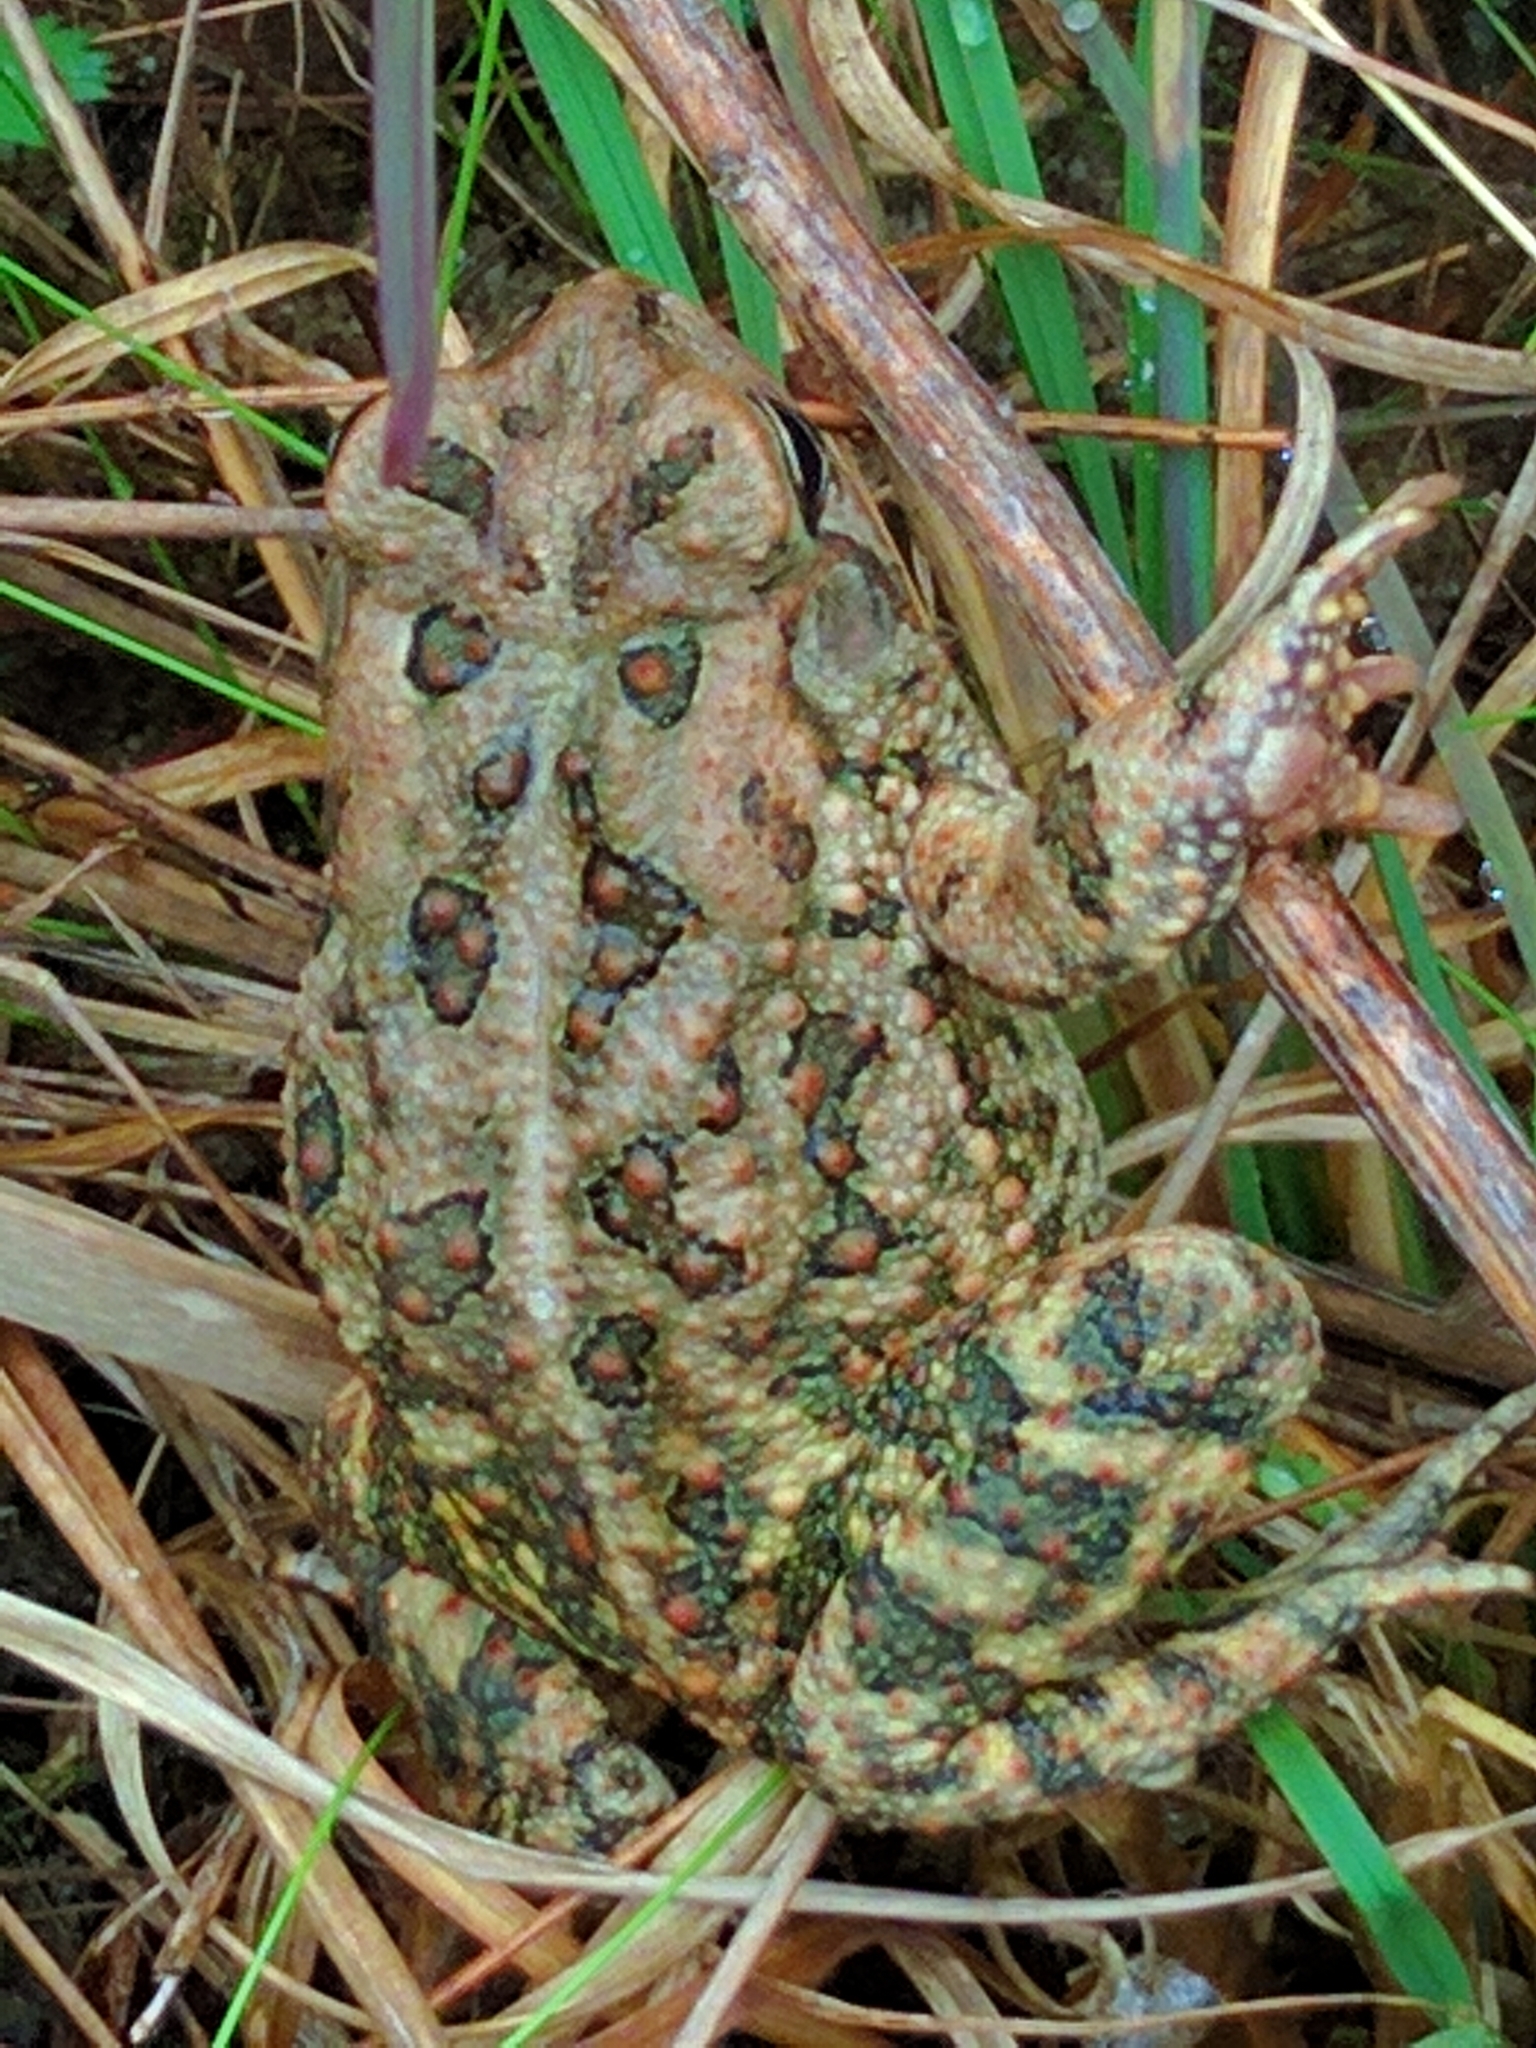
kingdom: Animalia
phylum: Chordata
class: Amphibia
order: Anura
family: Bufonidae
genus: Anaxyrus
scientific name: Anaxyrus fowleri
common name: Fowler's toad
